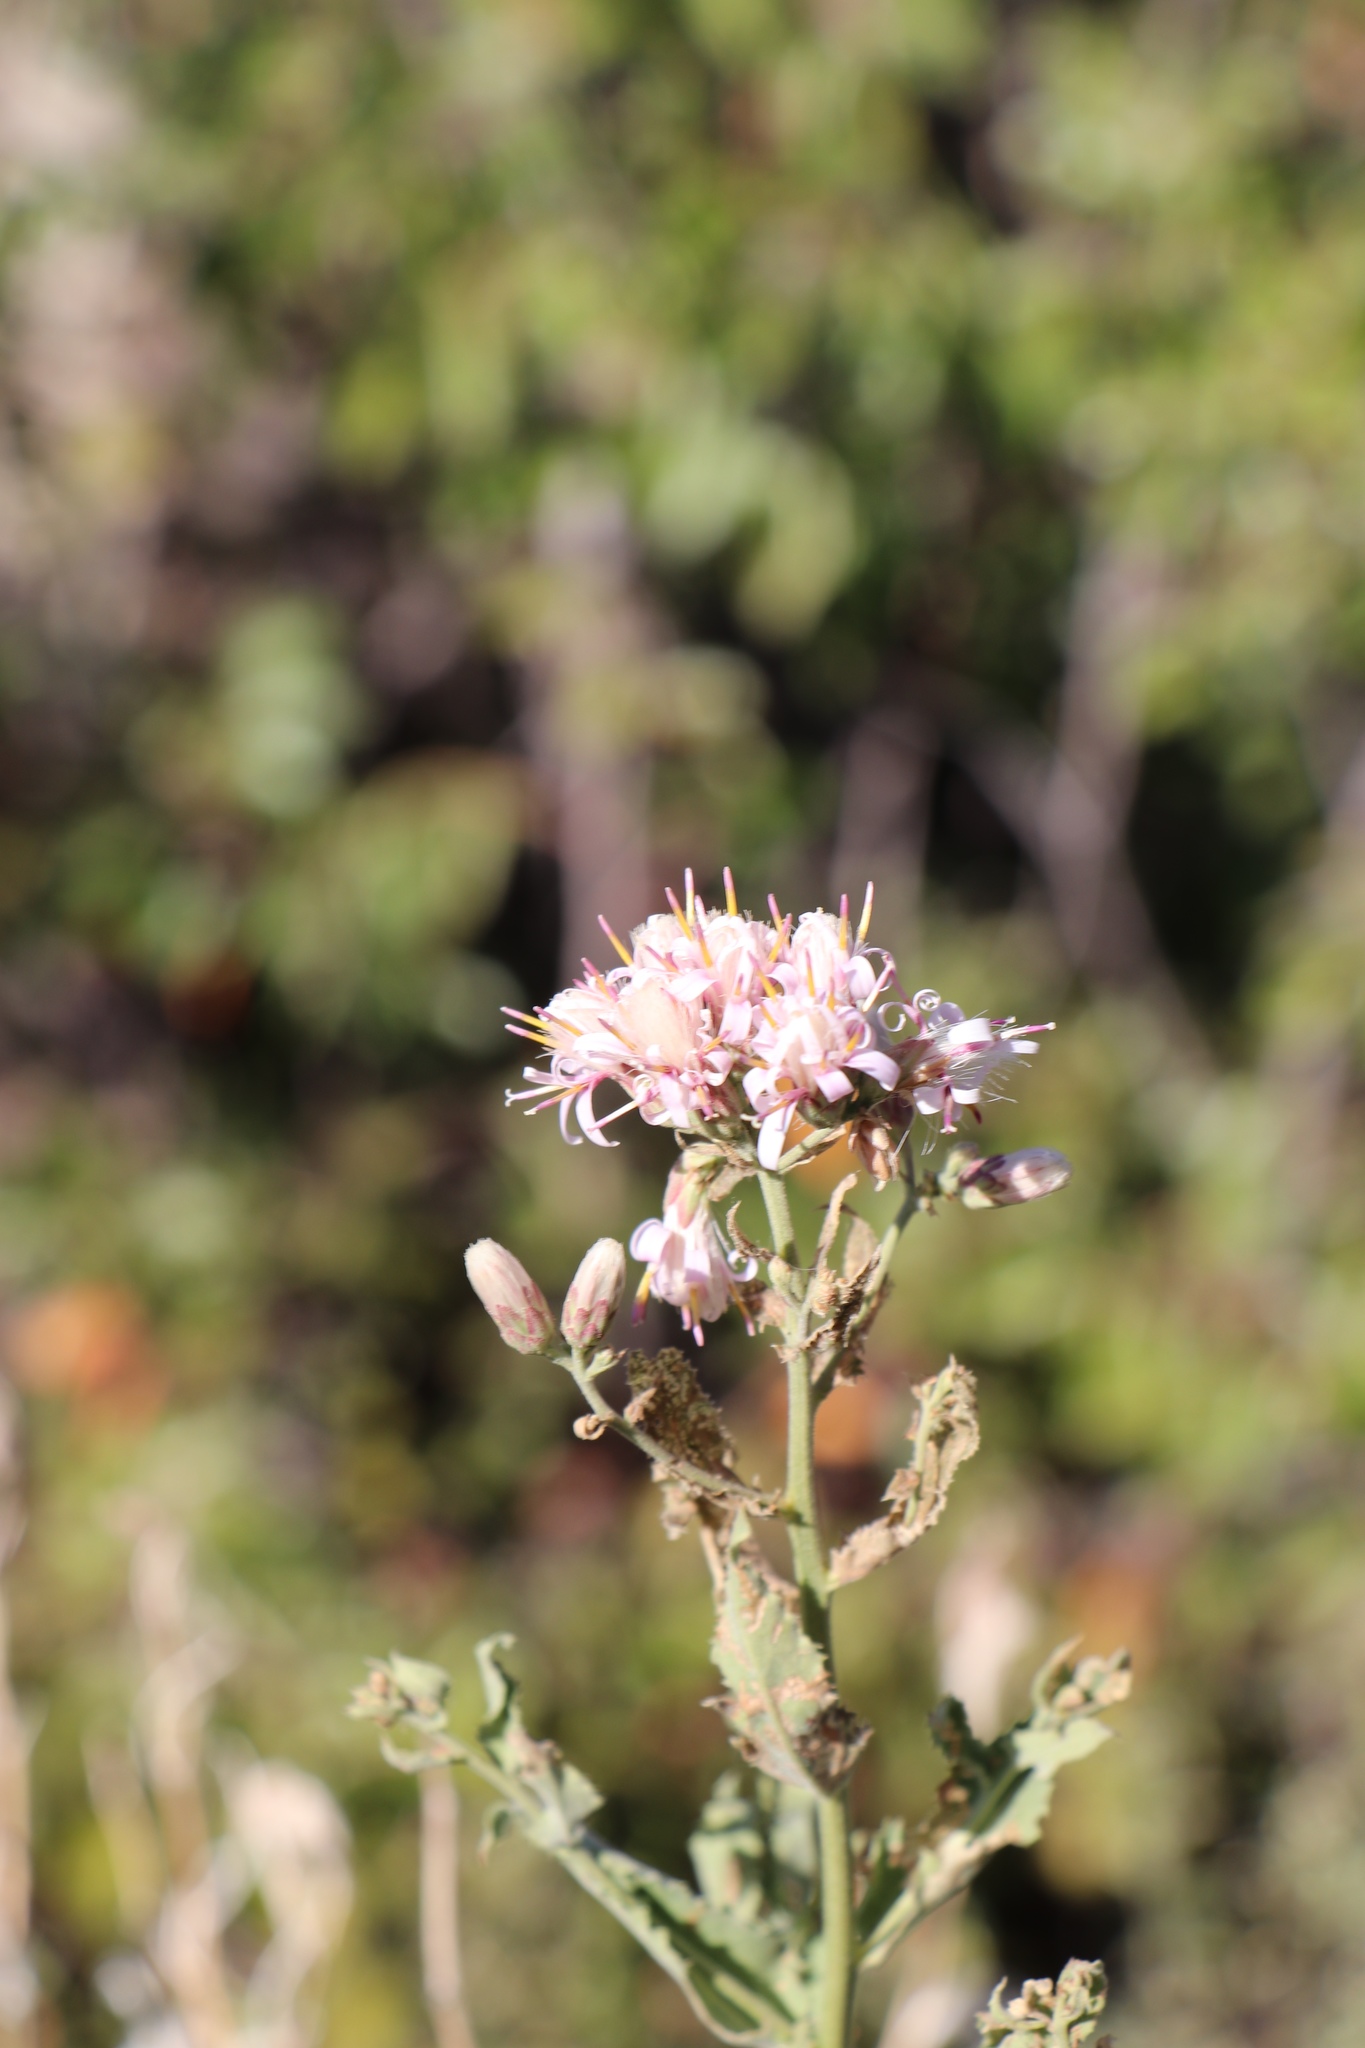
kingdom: Plantae
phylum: Tracheophyta
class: Magnoliopsida
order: Asterales
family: Asteraceae
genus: Acourtia
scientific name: Acourtia wrightii
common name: Brownfoot
